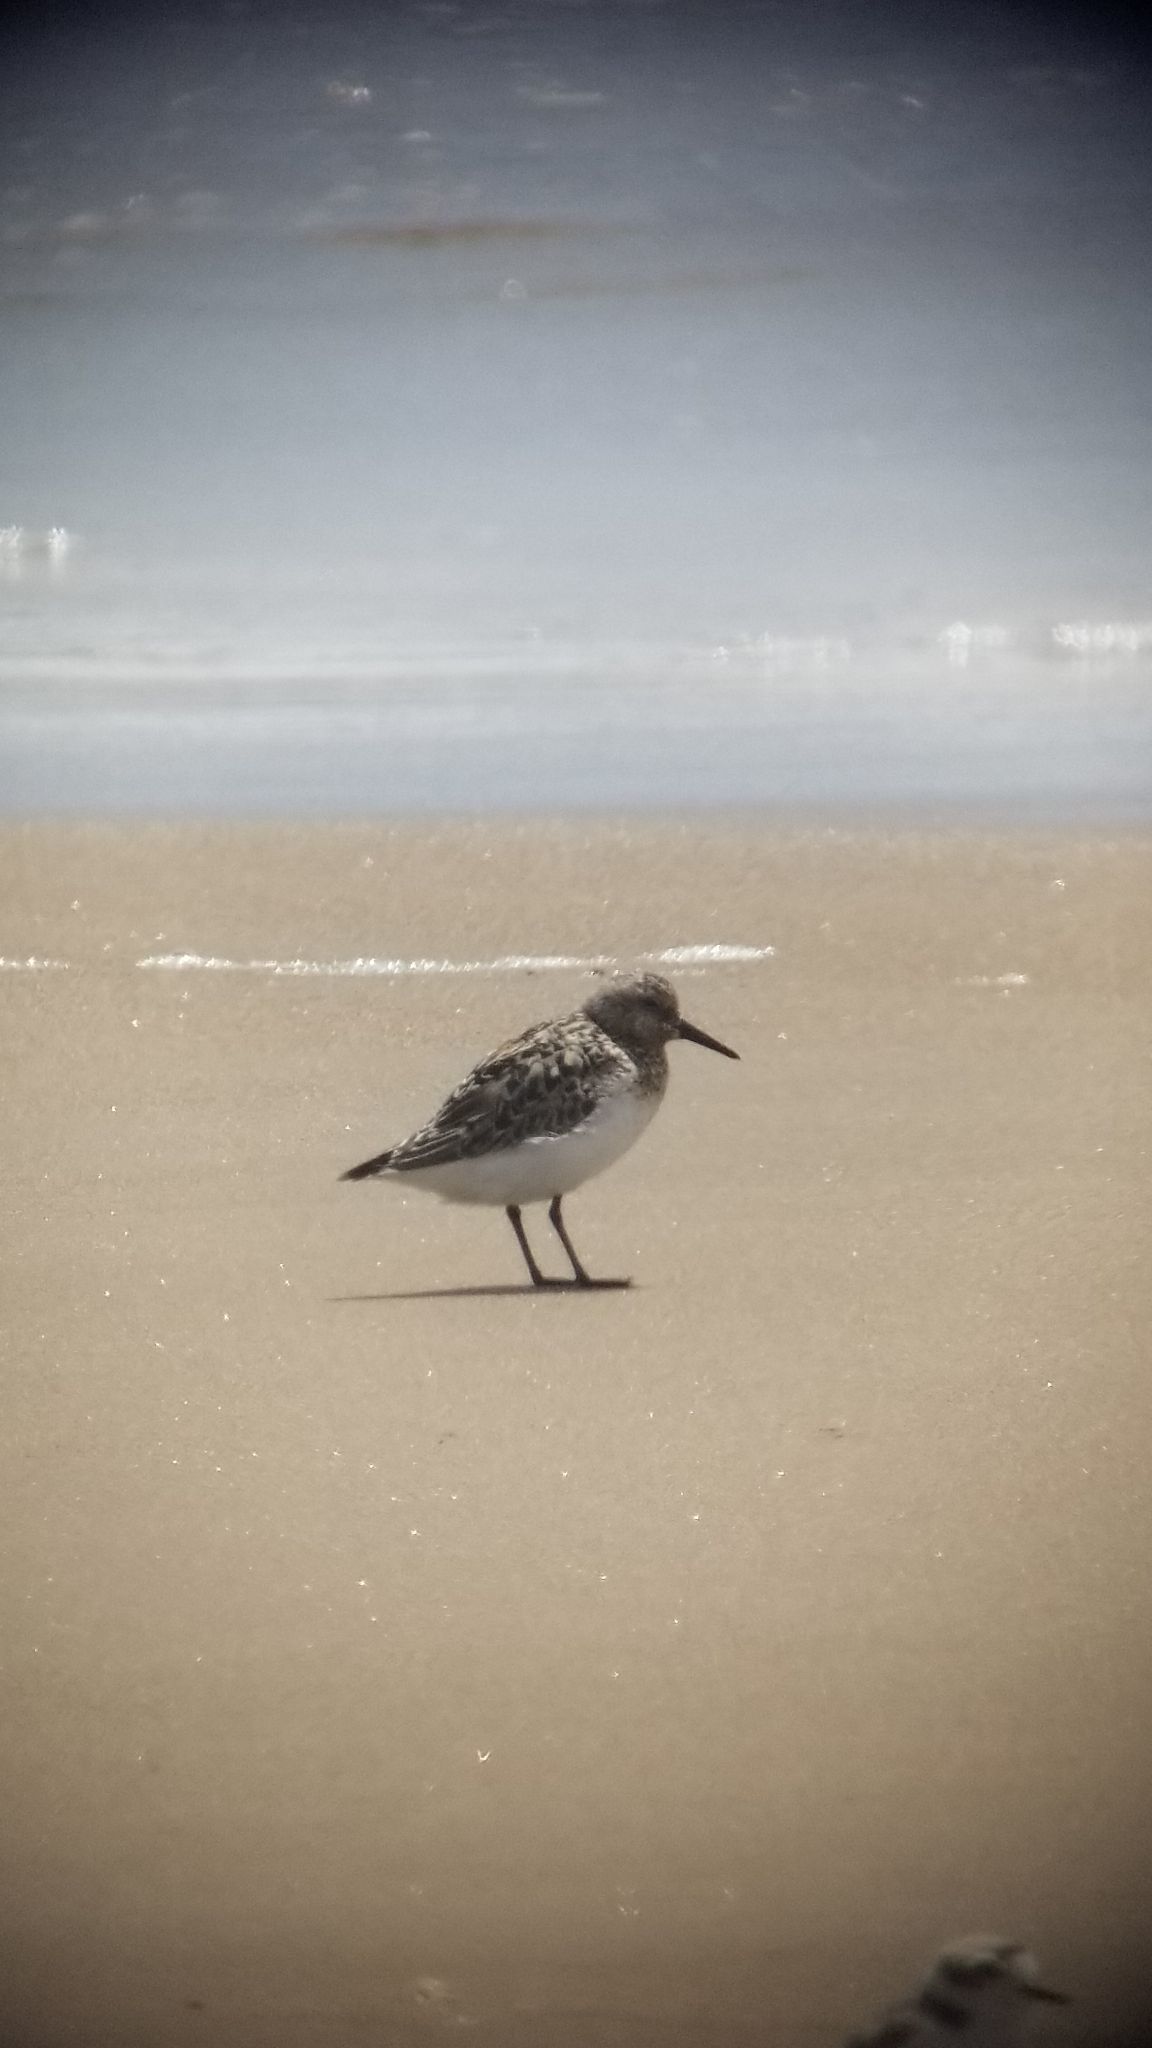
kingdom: Animalia
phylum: Chordata
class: Aves
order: Charadriiformes
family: Scolopacidae
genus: Calidris
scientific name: Calidris alba
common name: Sanderling
